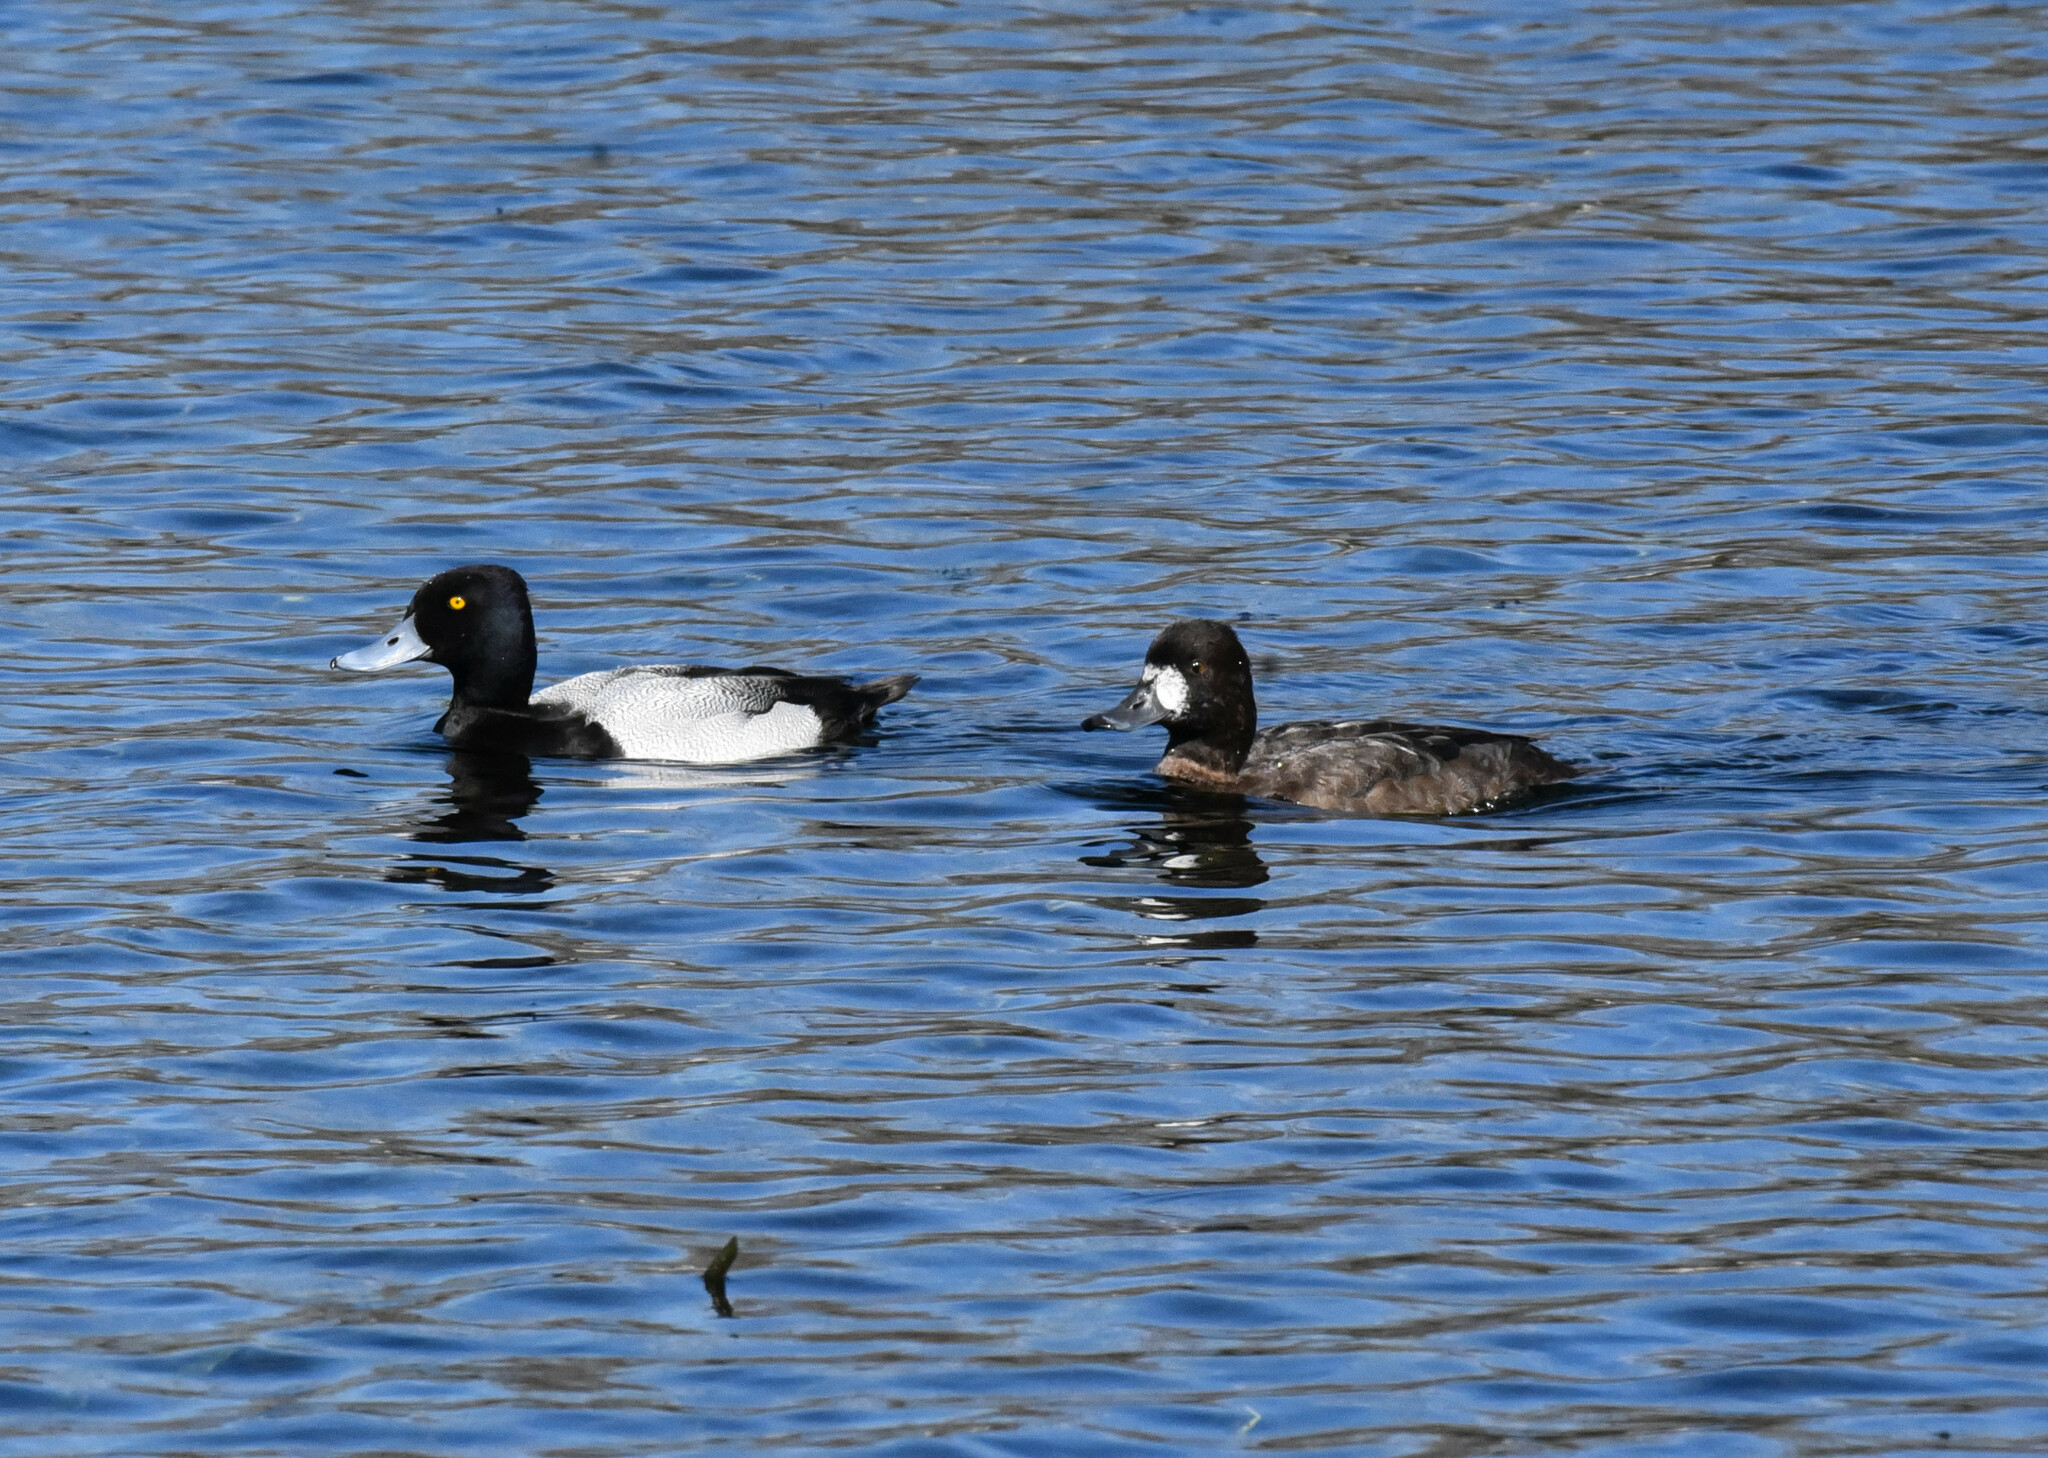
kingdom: Animalia
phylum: Chordata
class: Aves
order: Anseriformes
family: Anatidae
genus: Aythya
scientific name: Aythya affinis
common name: Lesser scaup
